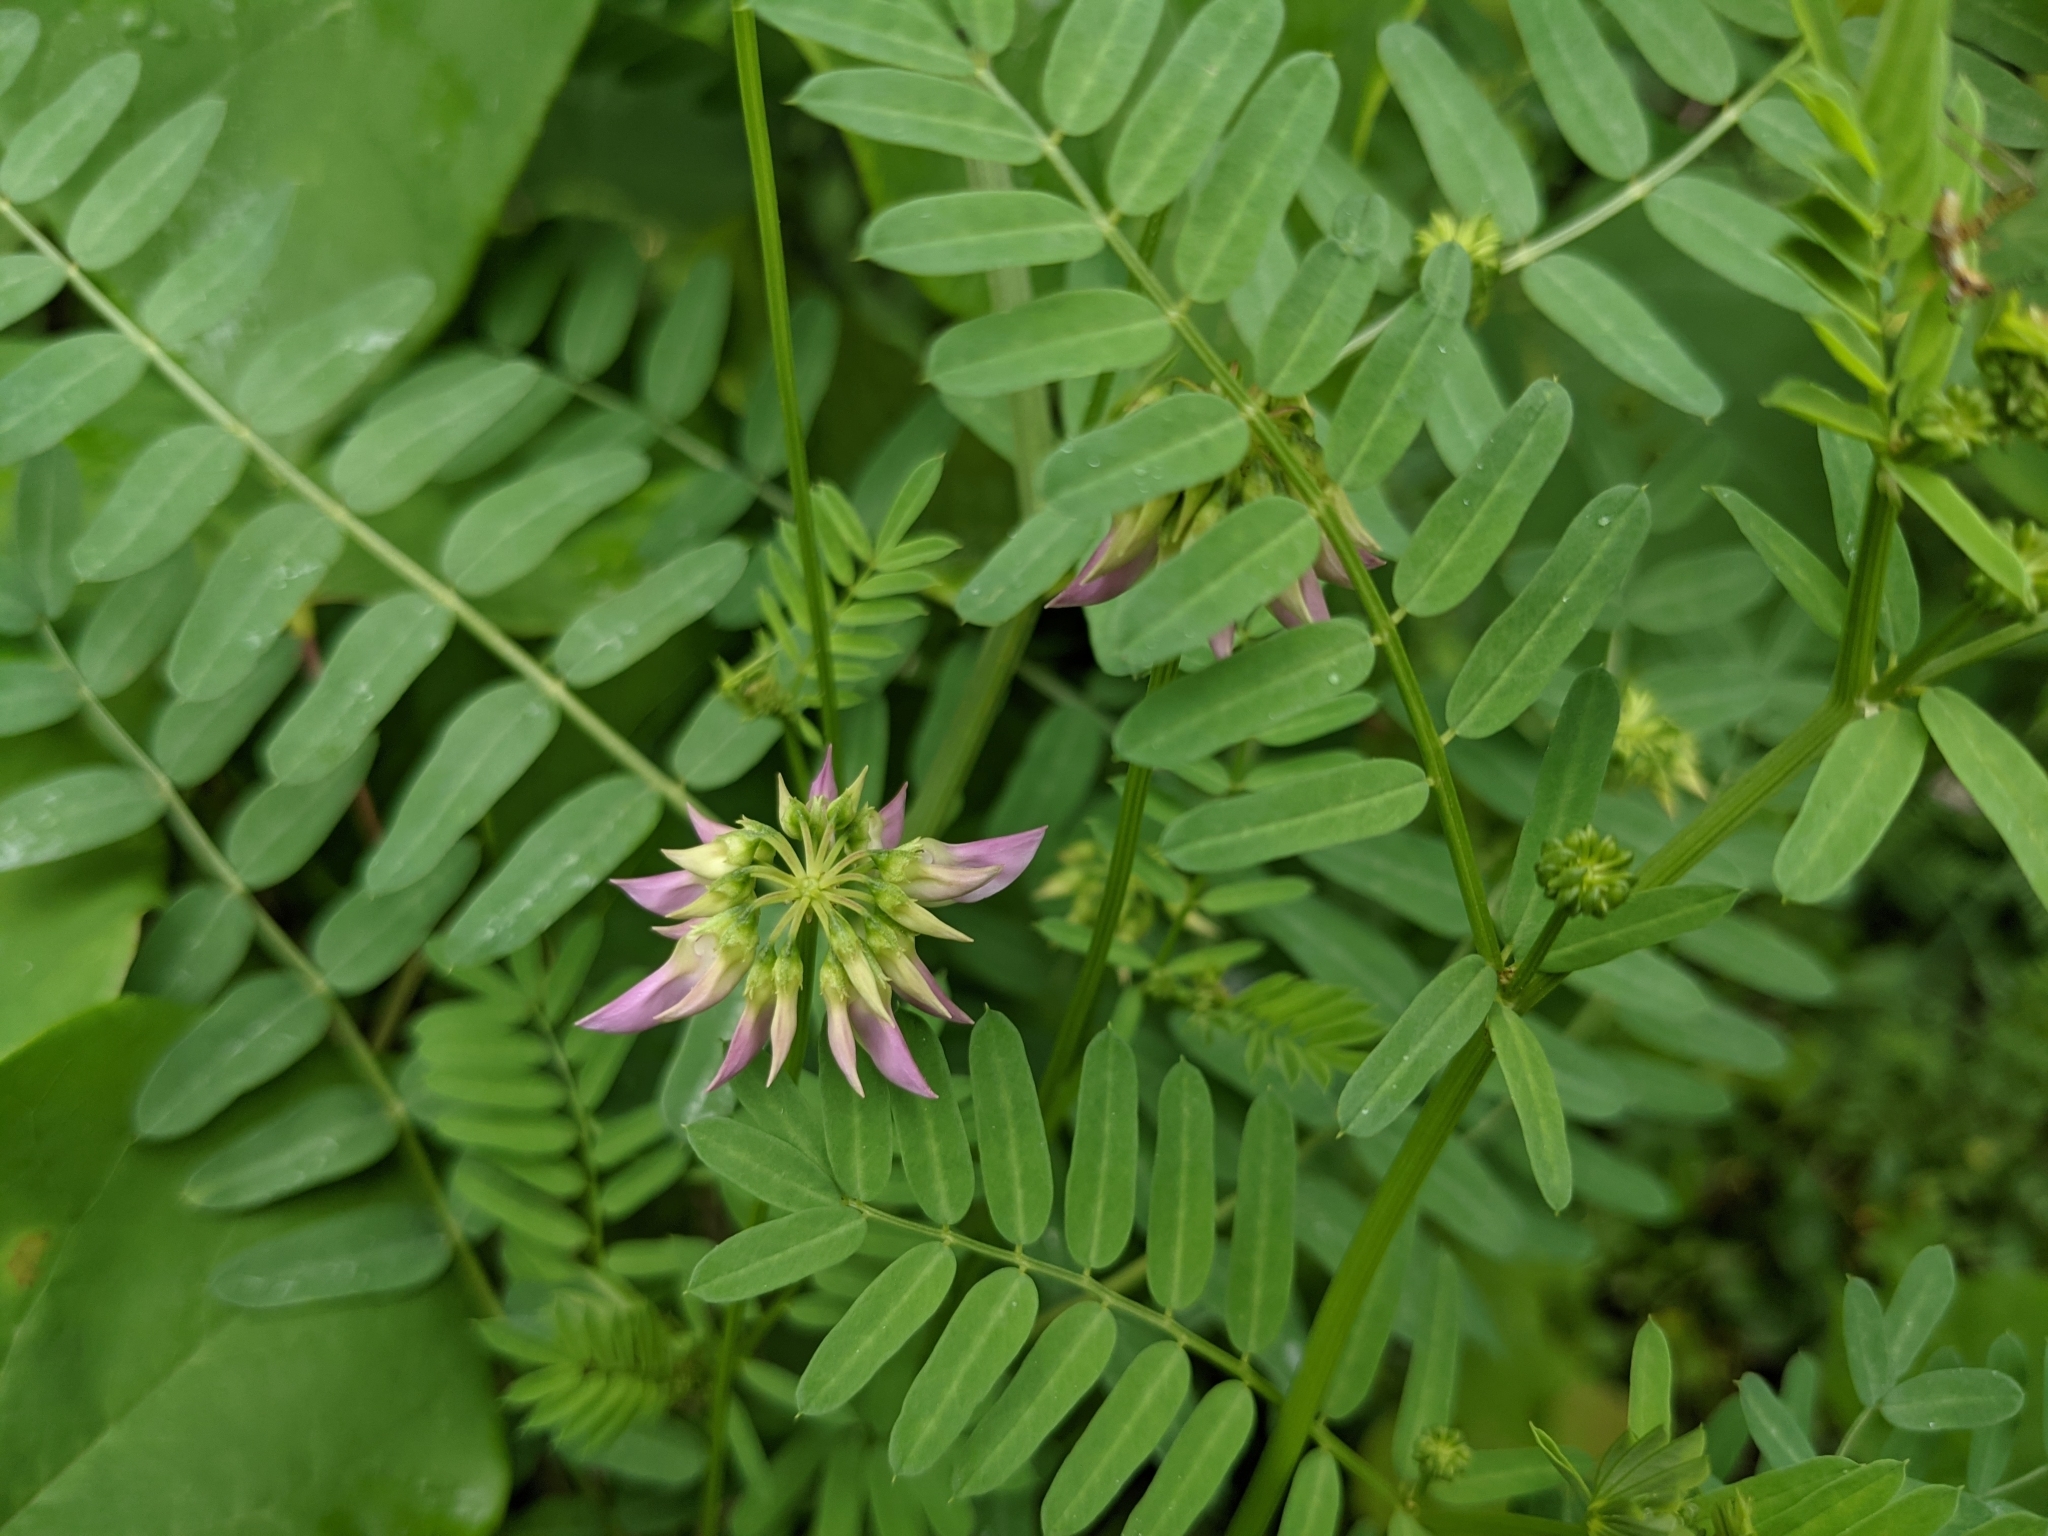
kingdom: Plantae
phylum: Tracheophyta
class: Magnoliopsida
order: Fabales
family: Fabaceae
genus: Coronilla
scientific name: Coronilla varia
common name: Crownvetch
